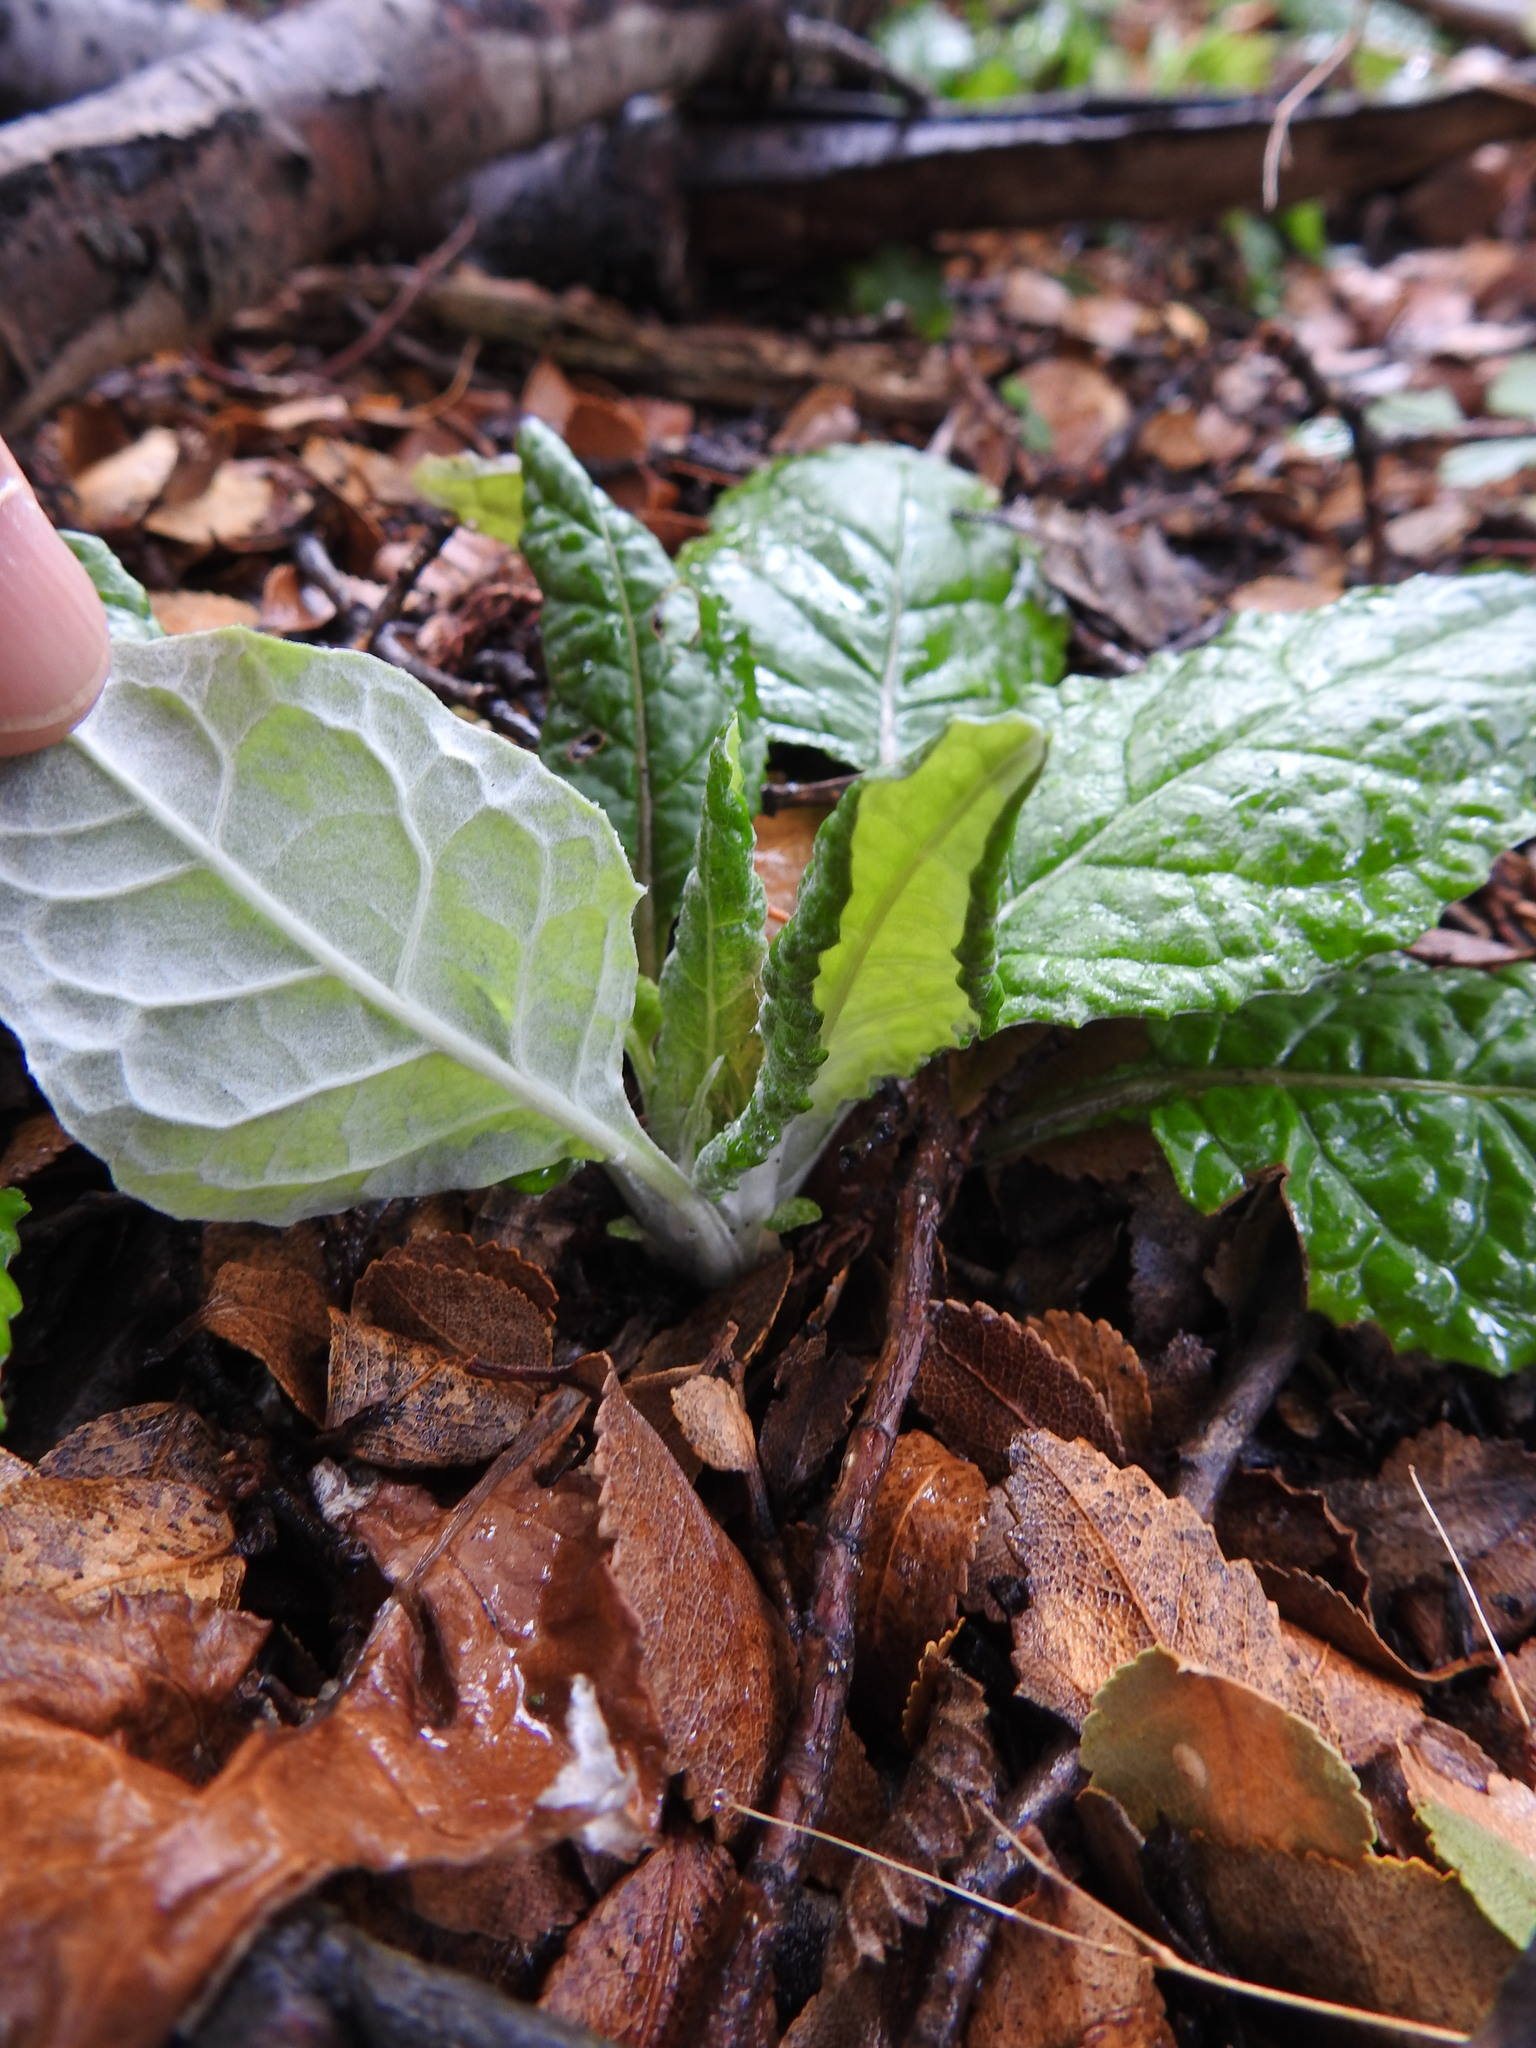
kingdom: Plantae
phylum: Tracheophyta
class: Magnoliopsida
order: Asterales
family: Asteraceae
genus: Adenocaulon
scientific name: Adenocaulon chilense
